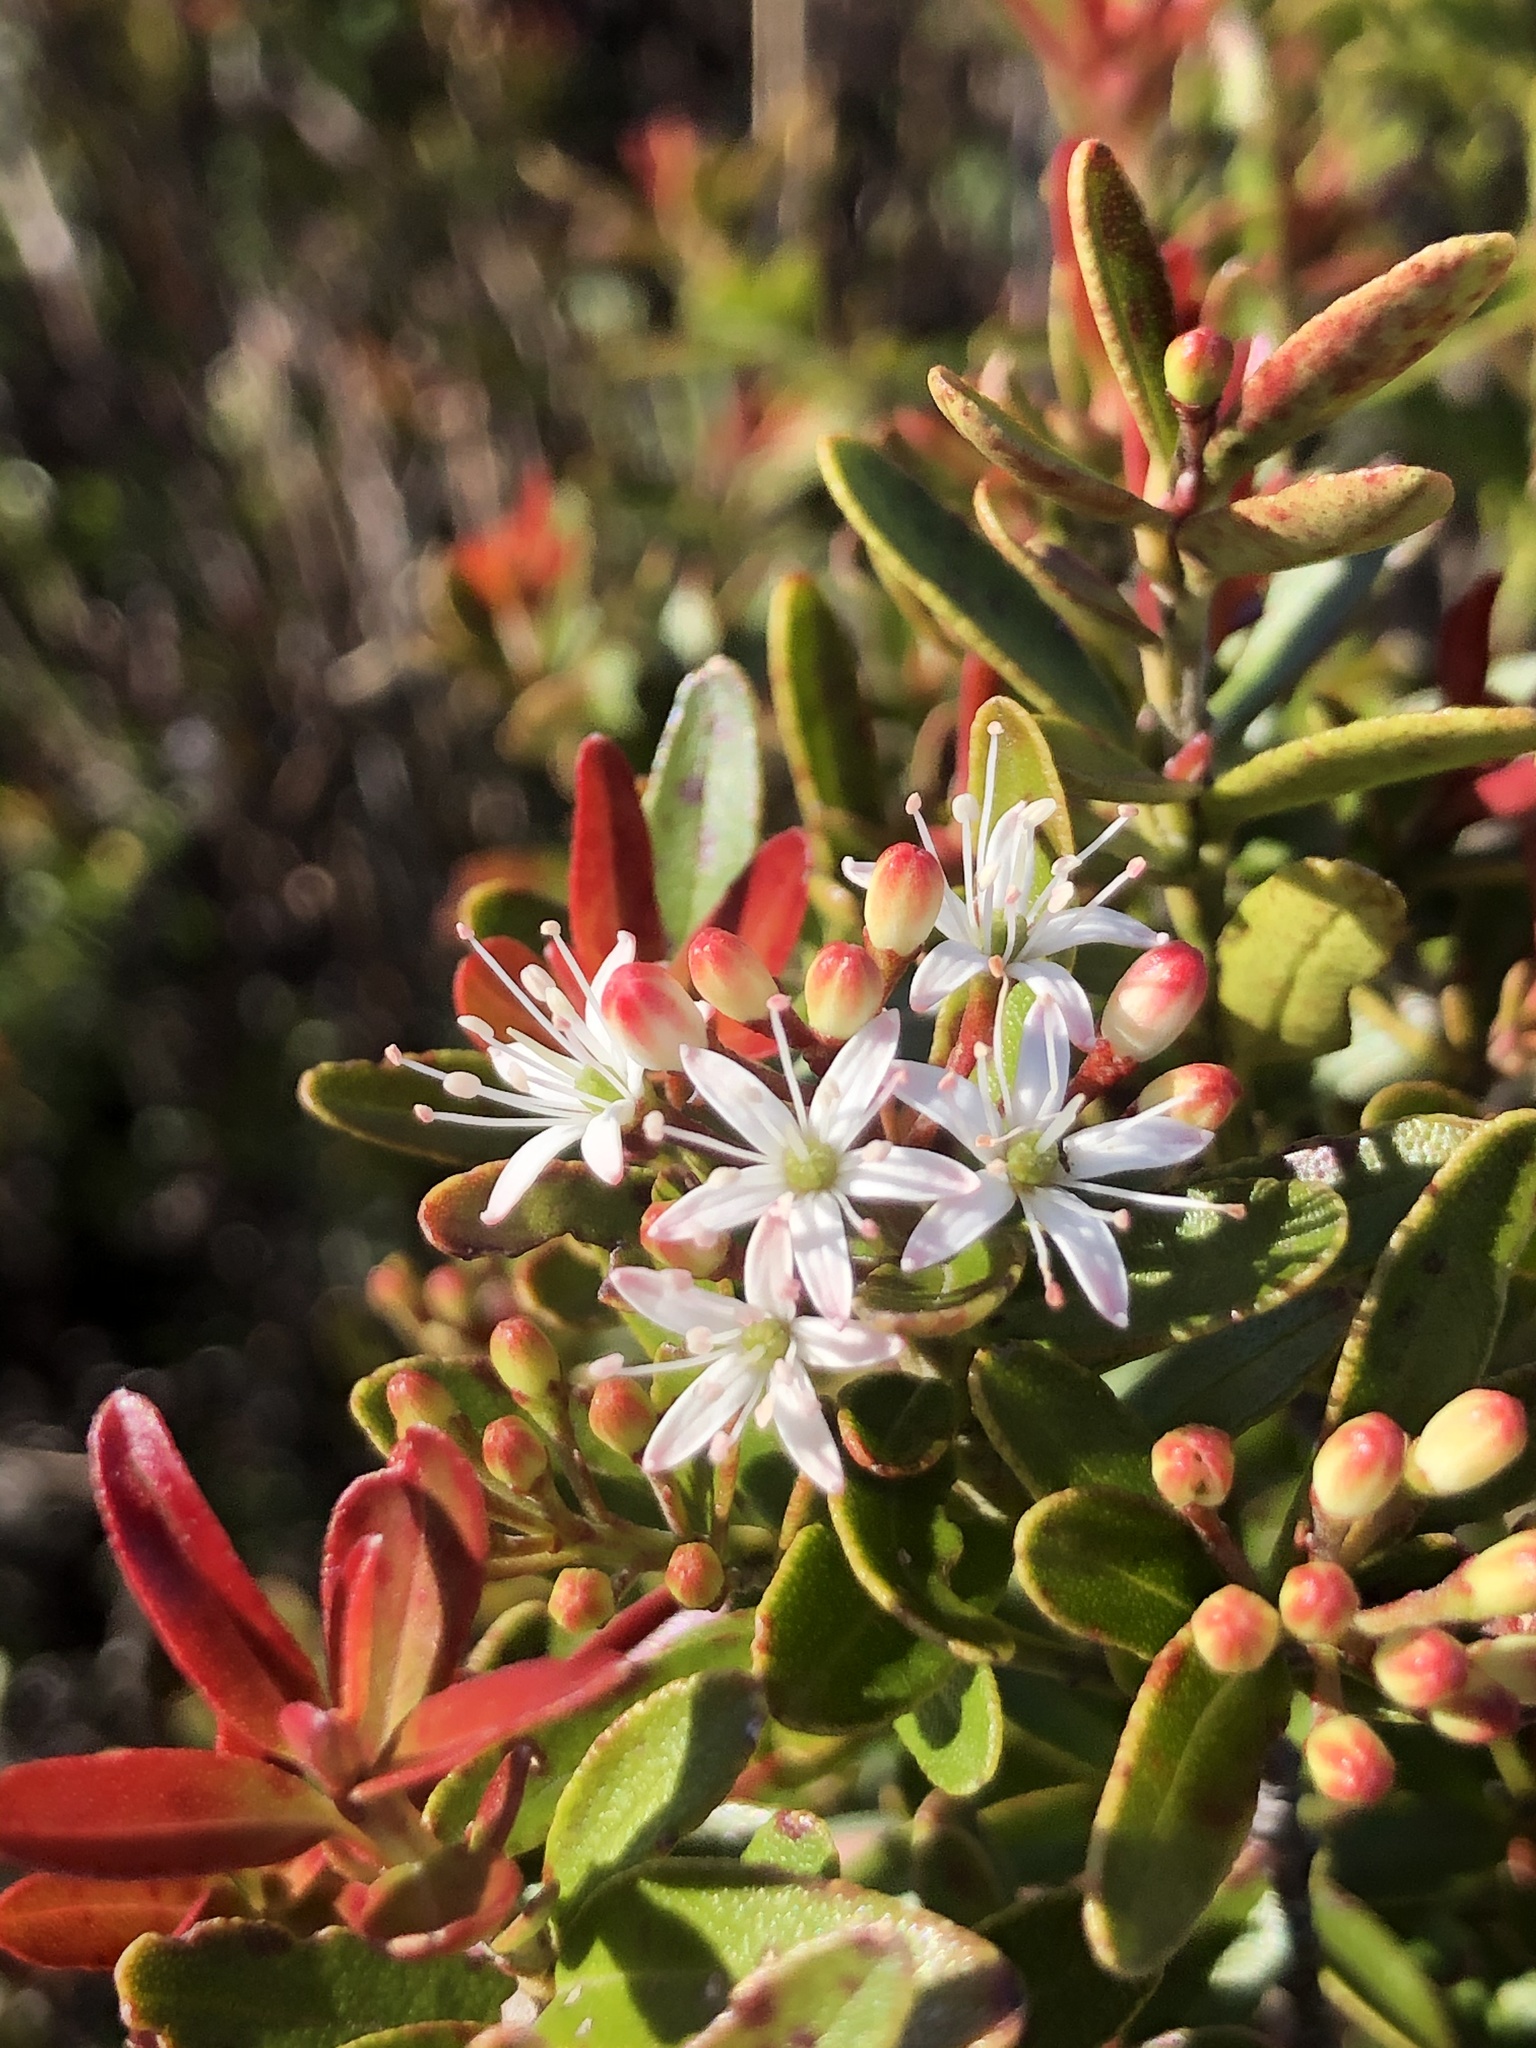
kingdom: Plantae
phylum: Tracheophyta
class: Magnoliopsida
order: Sapindales
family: Rutaceae
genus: Leionema
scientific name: Leionema nudum
